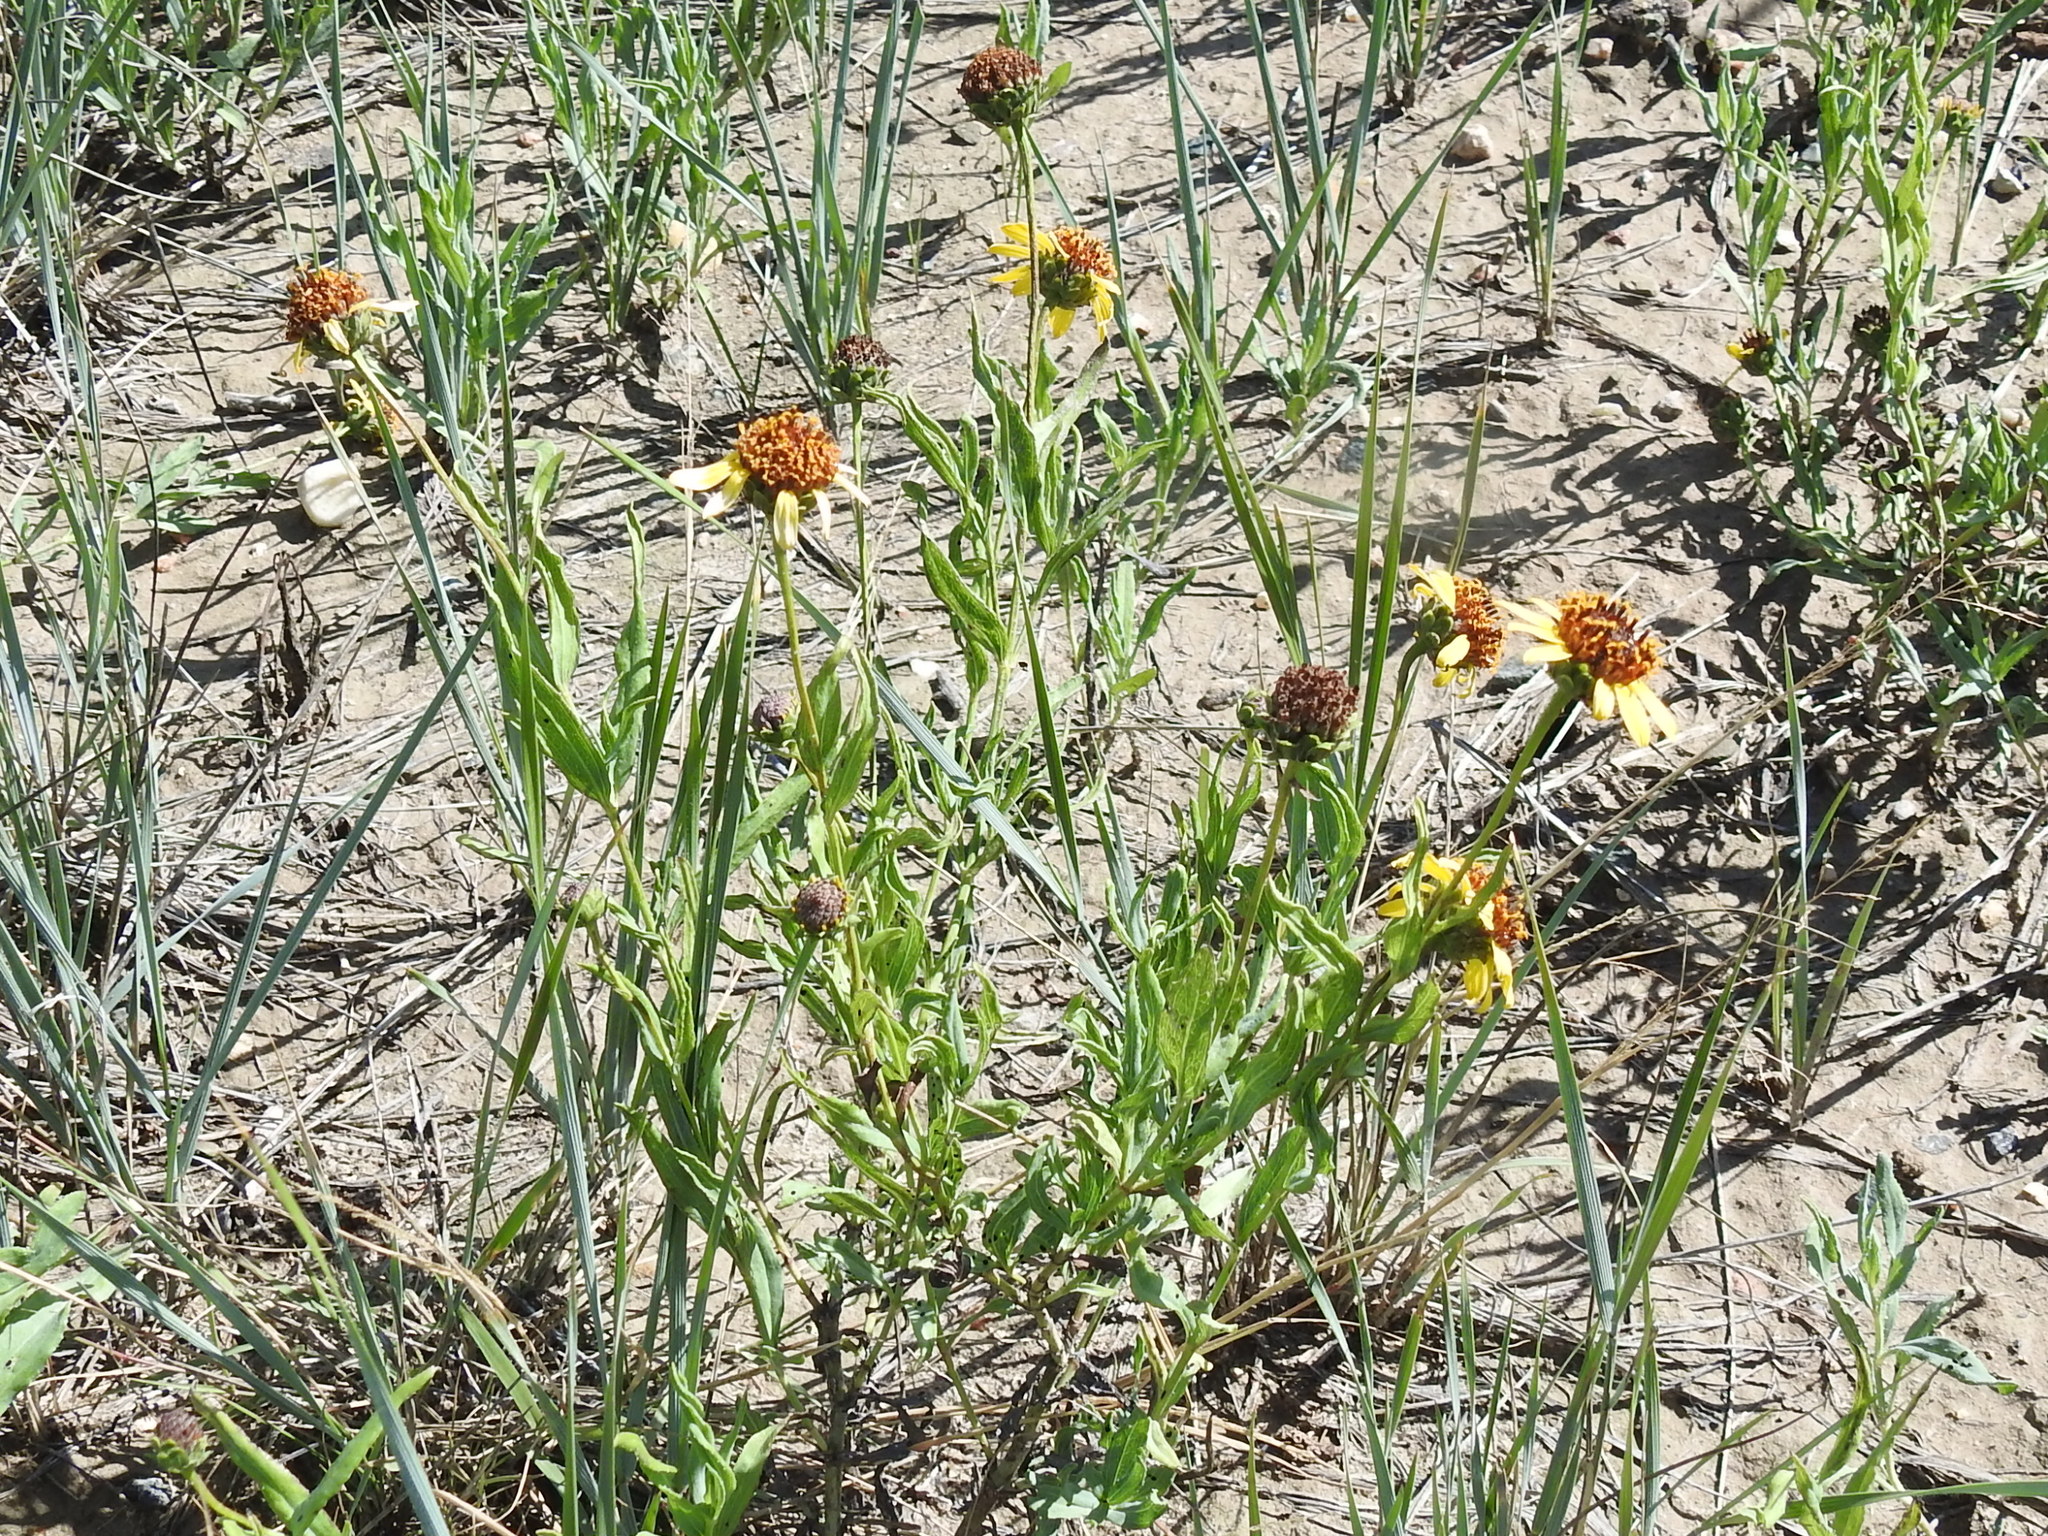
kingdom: Plantae
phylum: Tracheophyta
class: Magnoliopsida
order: Asterales
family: Asteraceae
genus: Helianthus
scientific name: Helianthus ciliaris
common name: Texas blueweed
